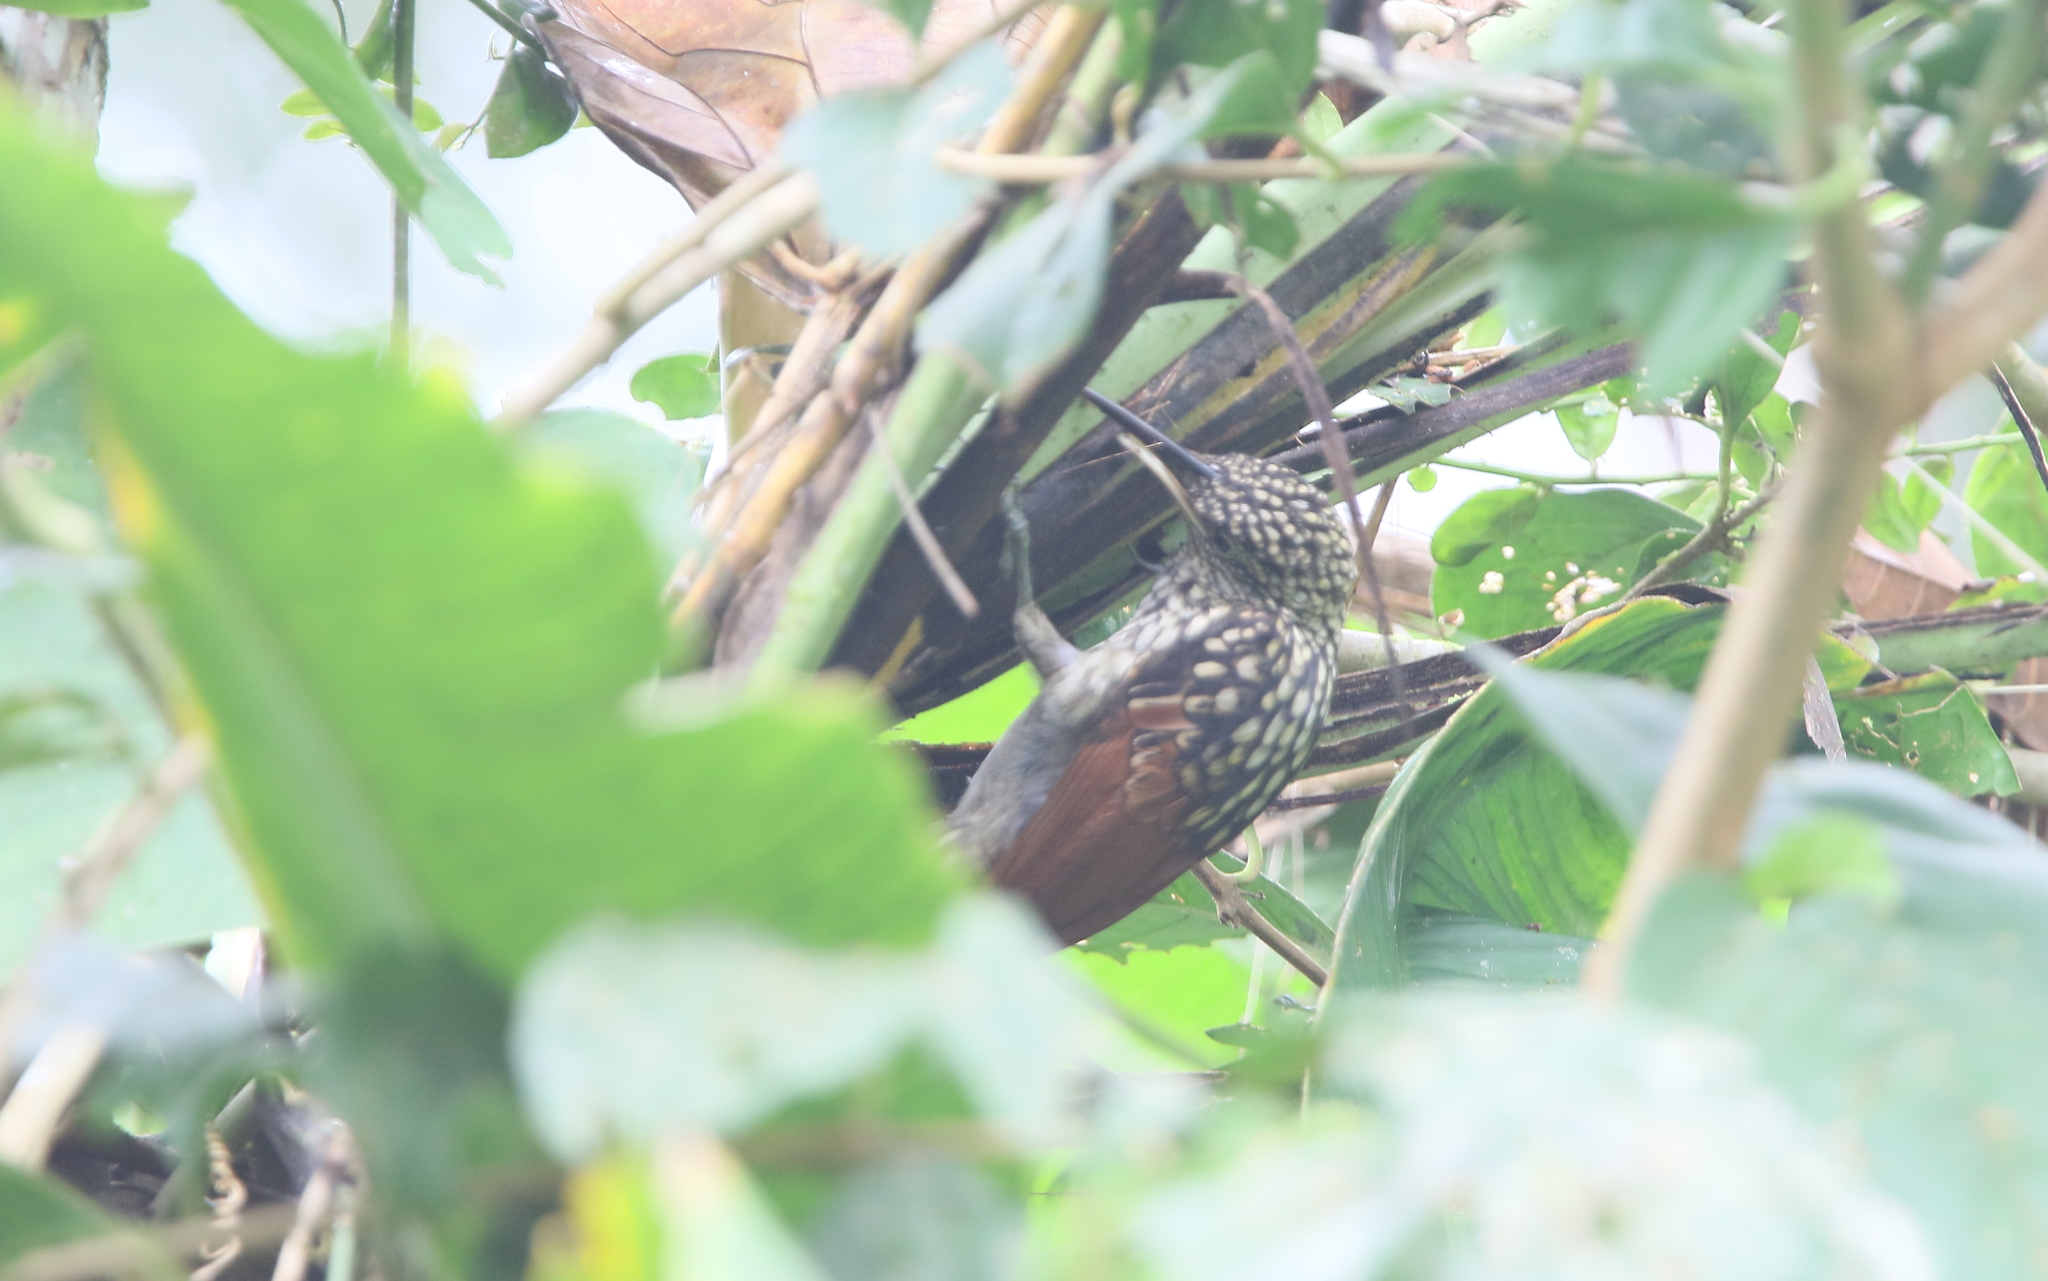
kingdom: Animalia
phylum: Chordata
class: Aves
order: Passeriformes
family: Furnariidae
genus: Xiphorhynchus
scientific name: Xiphorhynchus lachrymosus
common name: Black-striped woodcreeper
